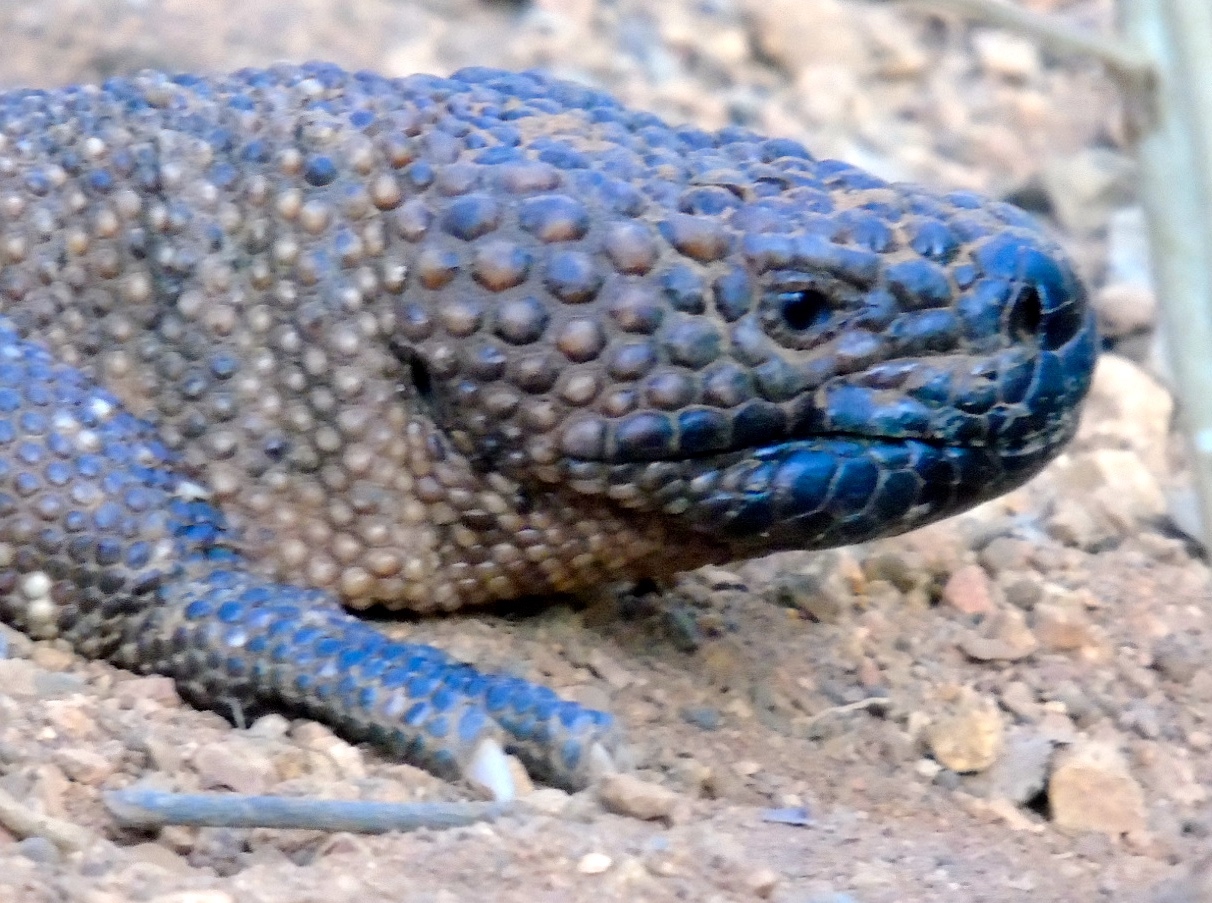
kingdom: Animalia
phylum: Chordata
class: Squamata
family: Helodermatidae
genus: Heloderma
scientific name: Heloderma horridum
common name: Mexican beaded lizard
